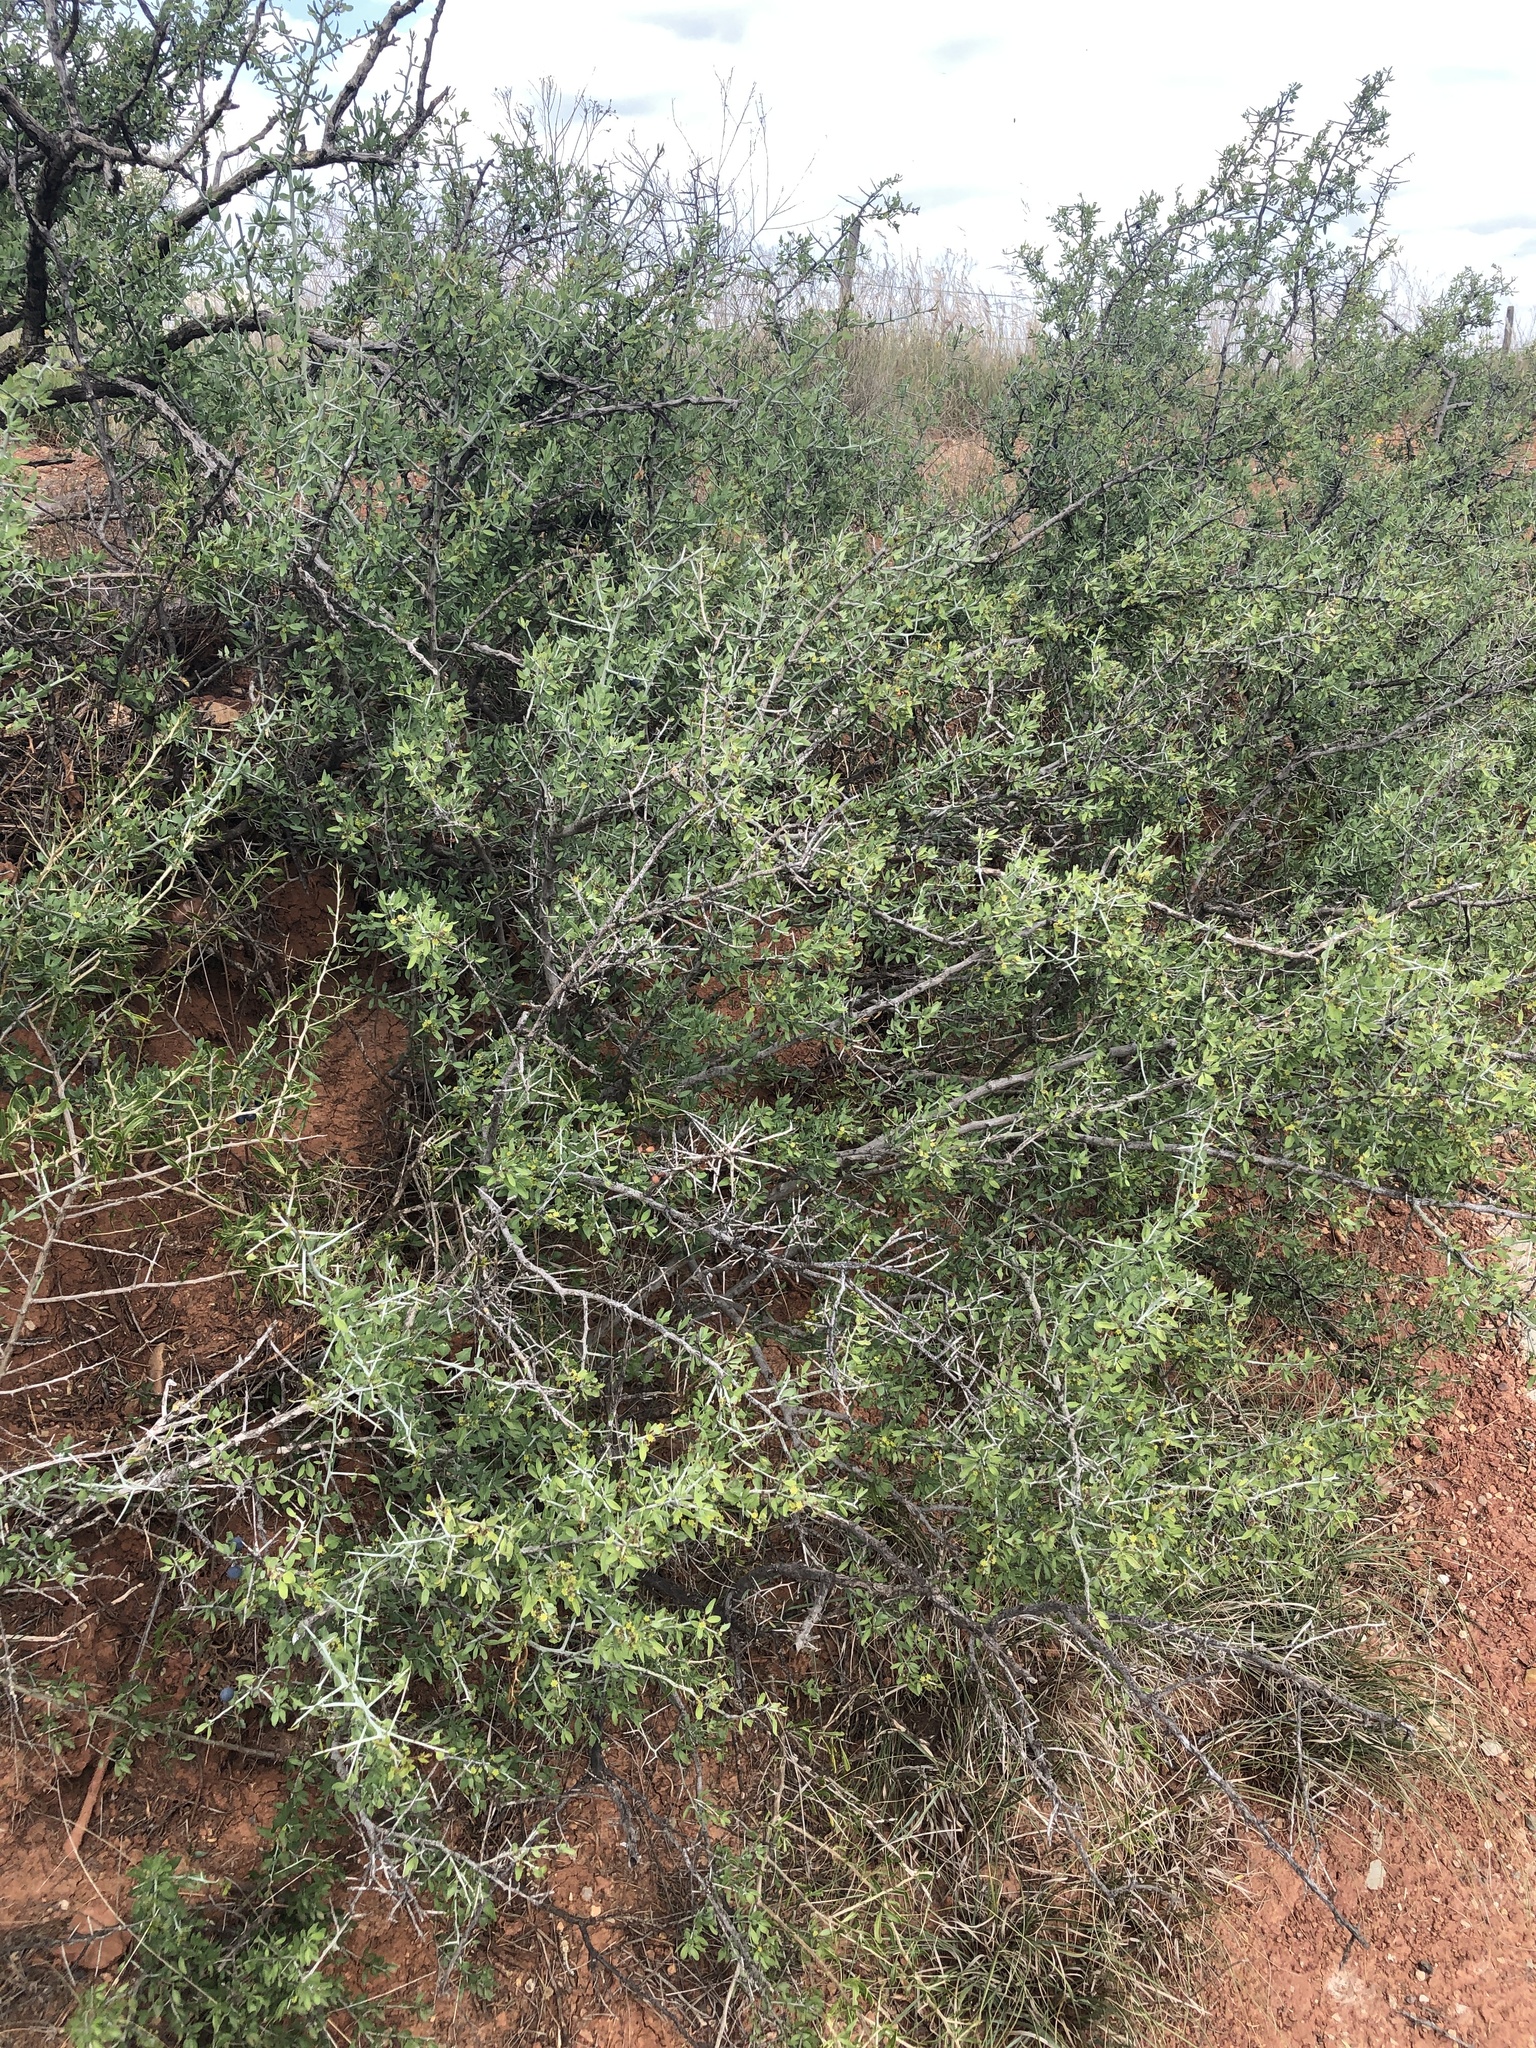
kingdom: Plantae
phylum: Tracheophyta
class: Magnoliopsida
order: Rosales
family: Rhamnaceae
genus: Sarcomphalus
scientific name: Sarcomphalus obtusifolius
